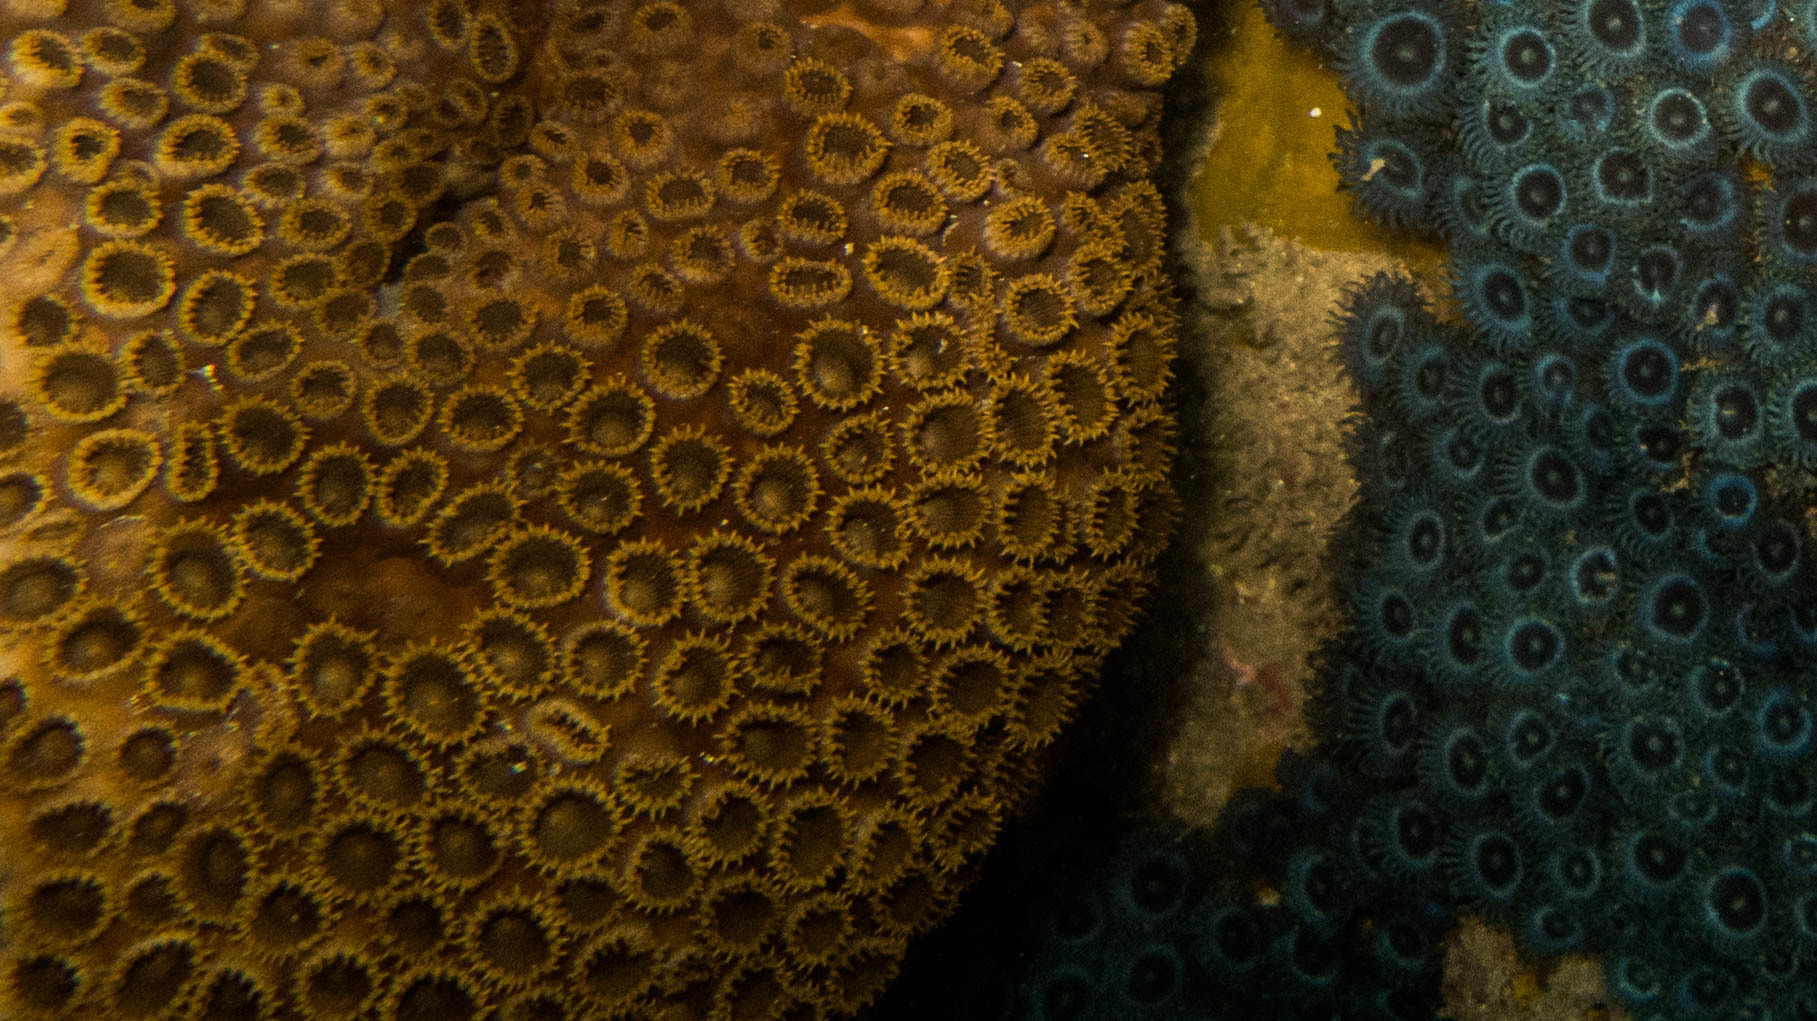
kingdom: Animalia
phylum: Cnidaria
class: Anthozoa
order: Zoantharia
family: Sphenopidae
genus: Palythoa
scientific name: Palythoa caribaeorum
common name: Encrusting colonial anemone
